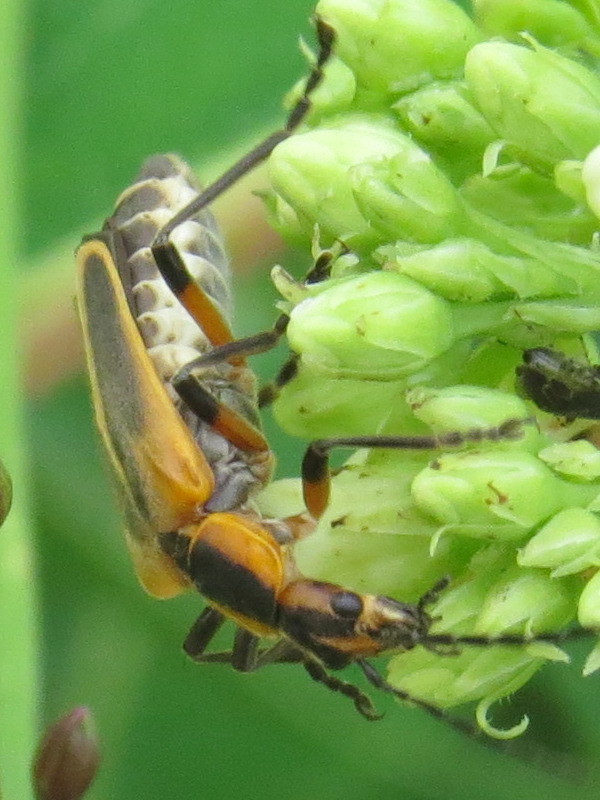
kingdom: Animalia
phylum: Arthropoda
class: Insecta
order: Coleoptera
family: Cantharidae
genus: Chauliognathus
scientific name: Chauliognathus marginatus
